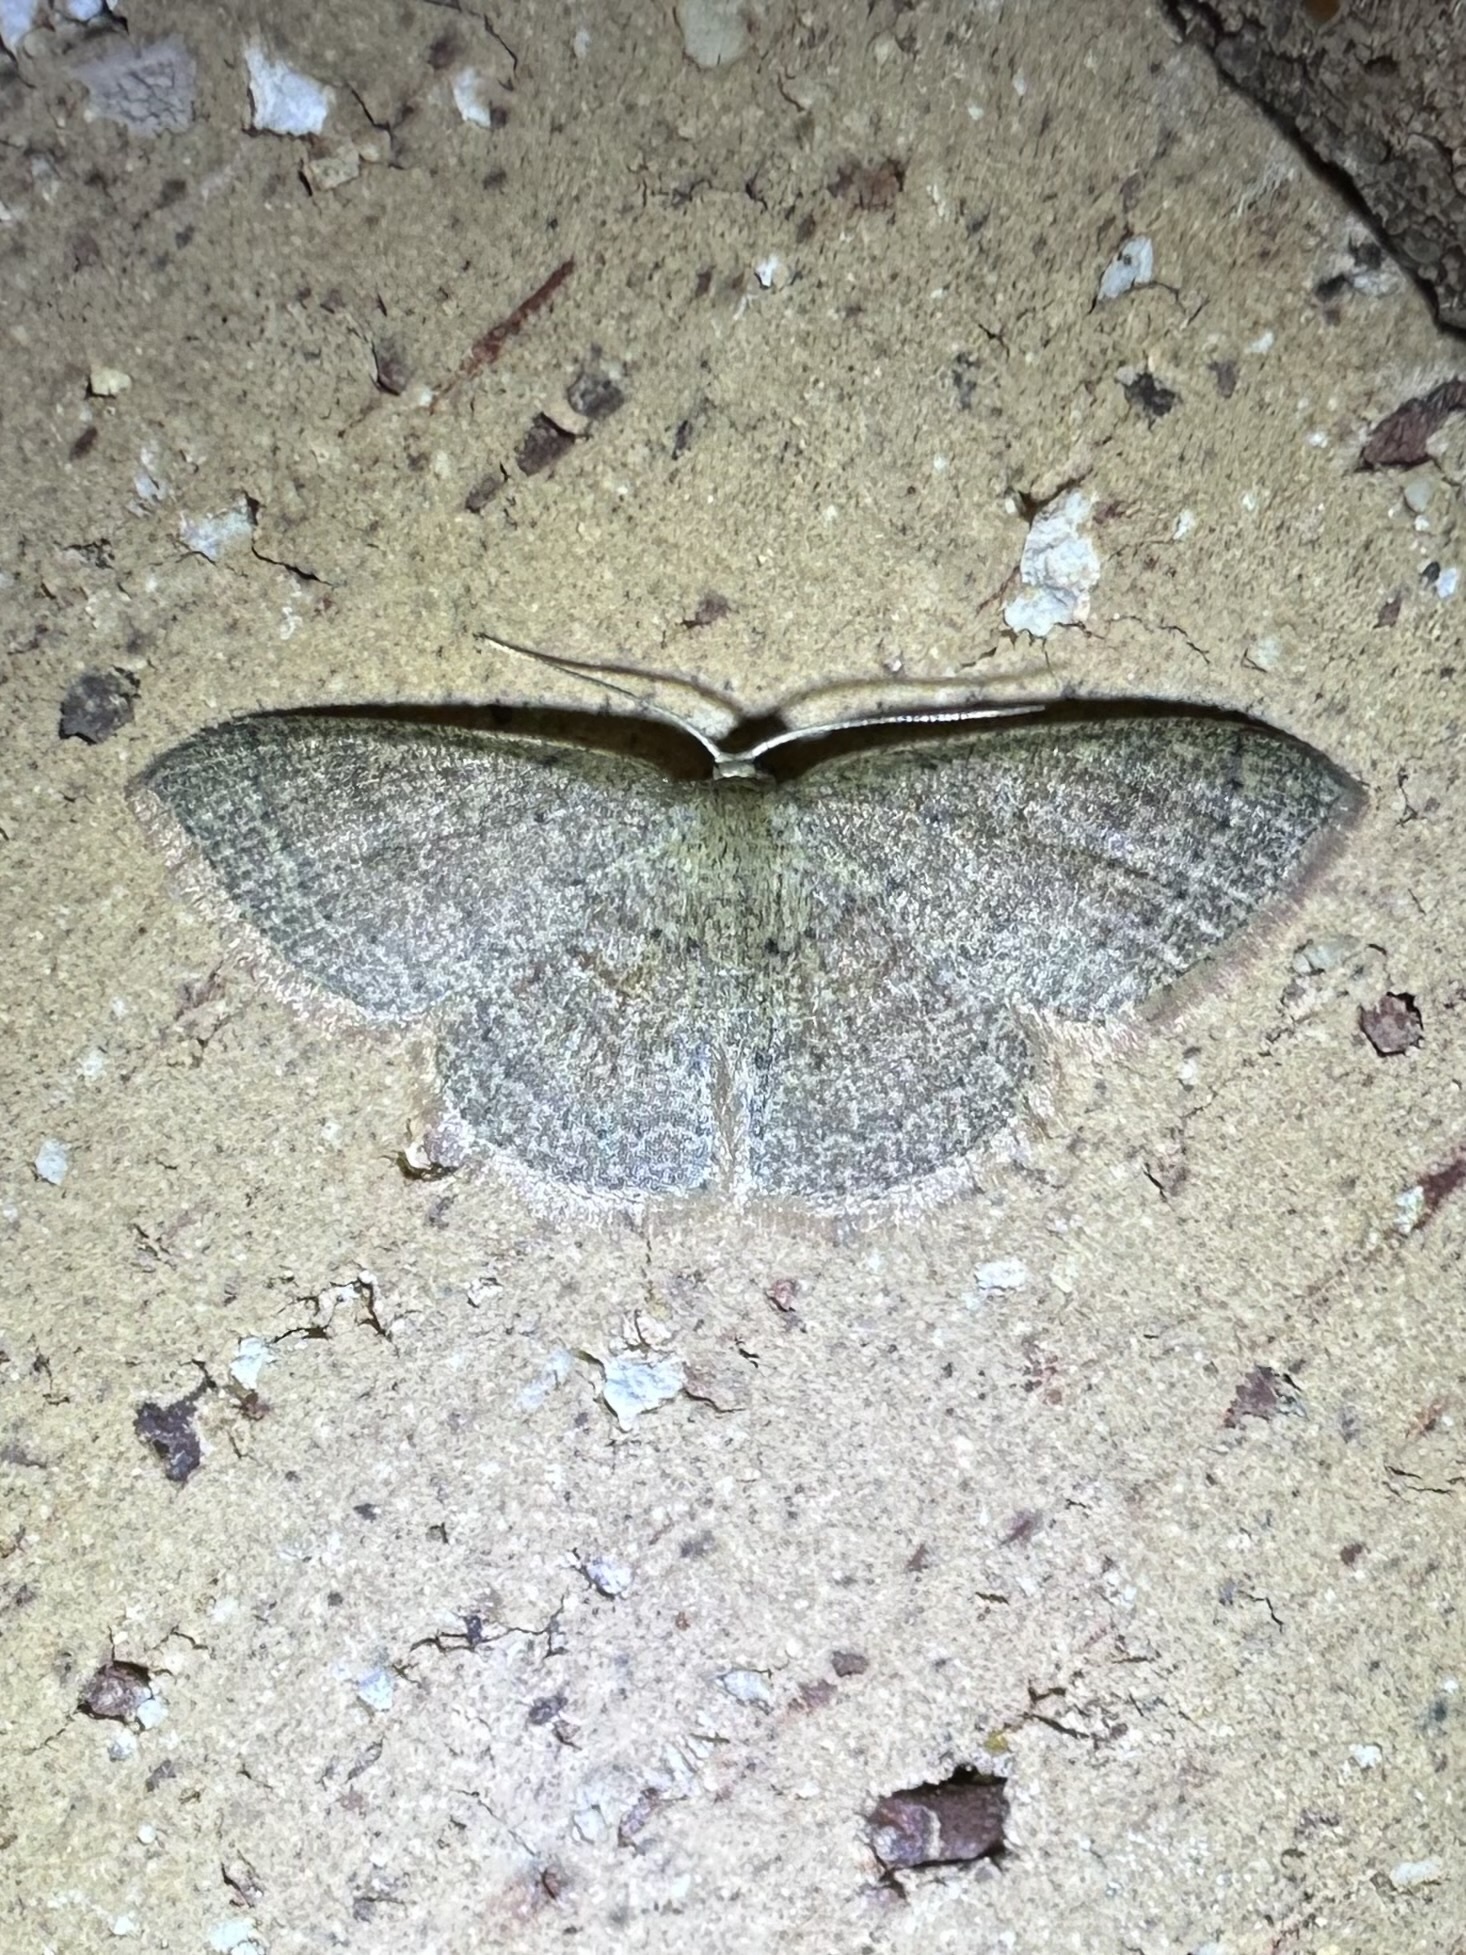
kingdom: Animalia
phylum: Arthropoda
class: Insecta
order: Lepidoptera
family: Geometridae
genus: Pleuroprucha
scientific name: Pleuroprucha insulsaria
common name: Common tan wave
